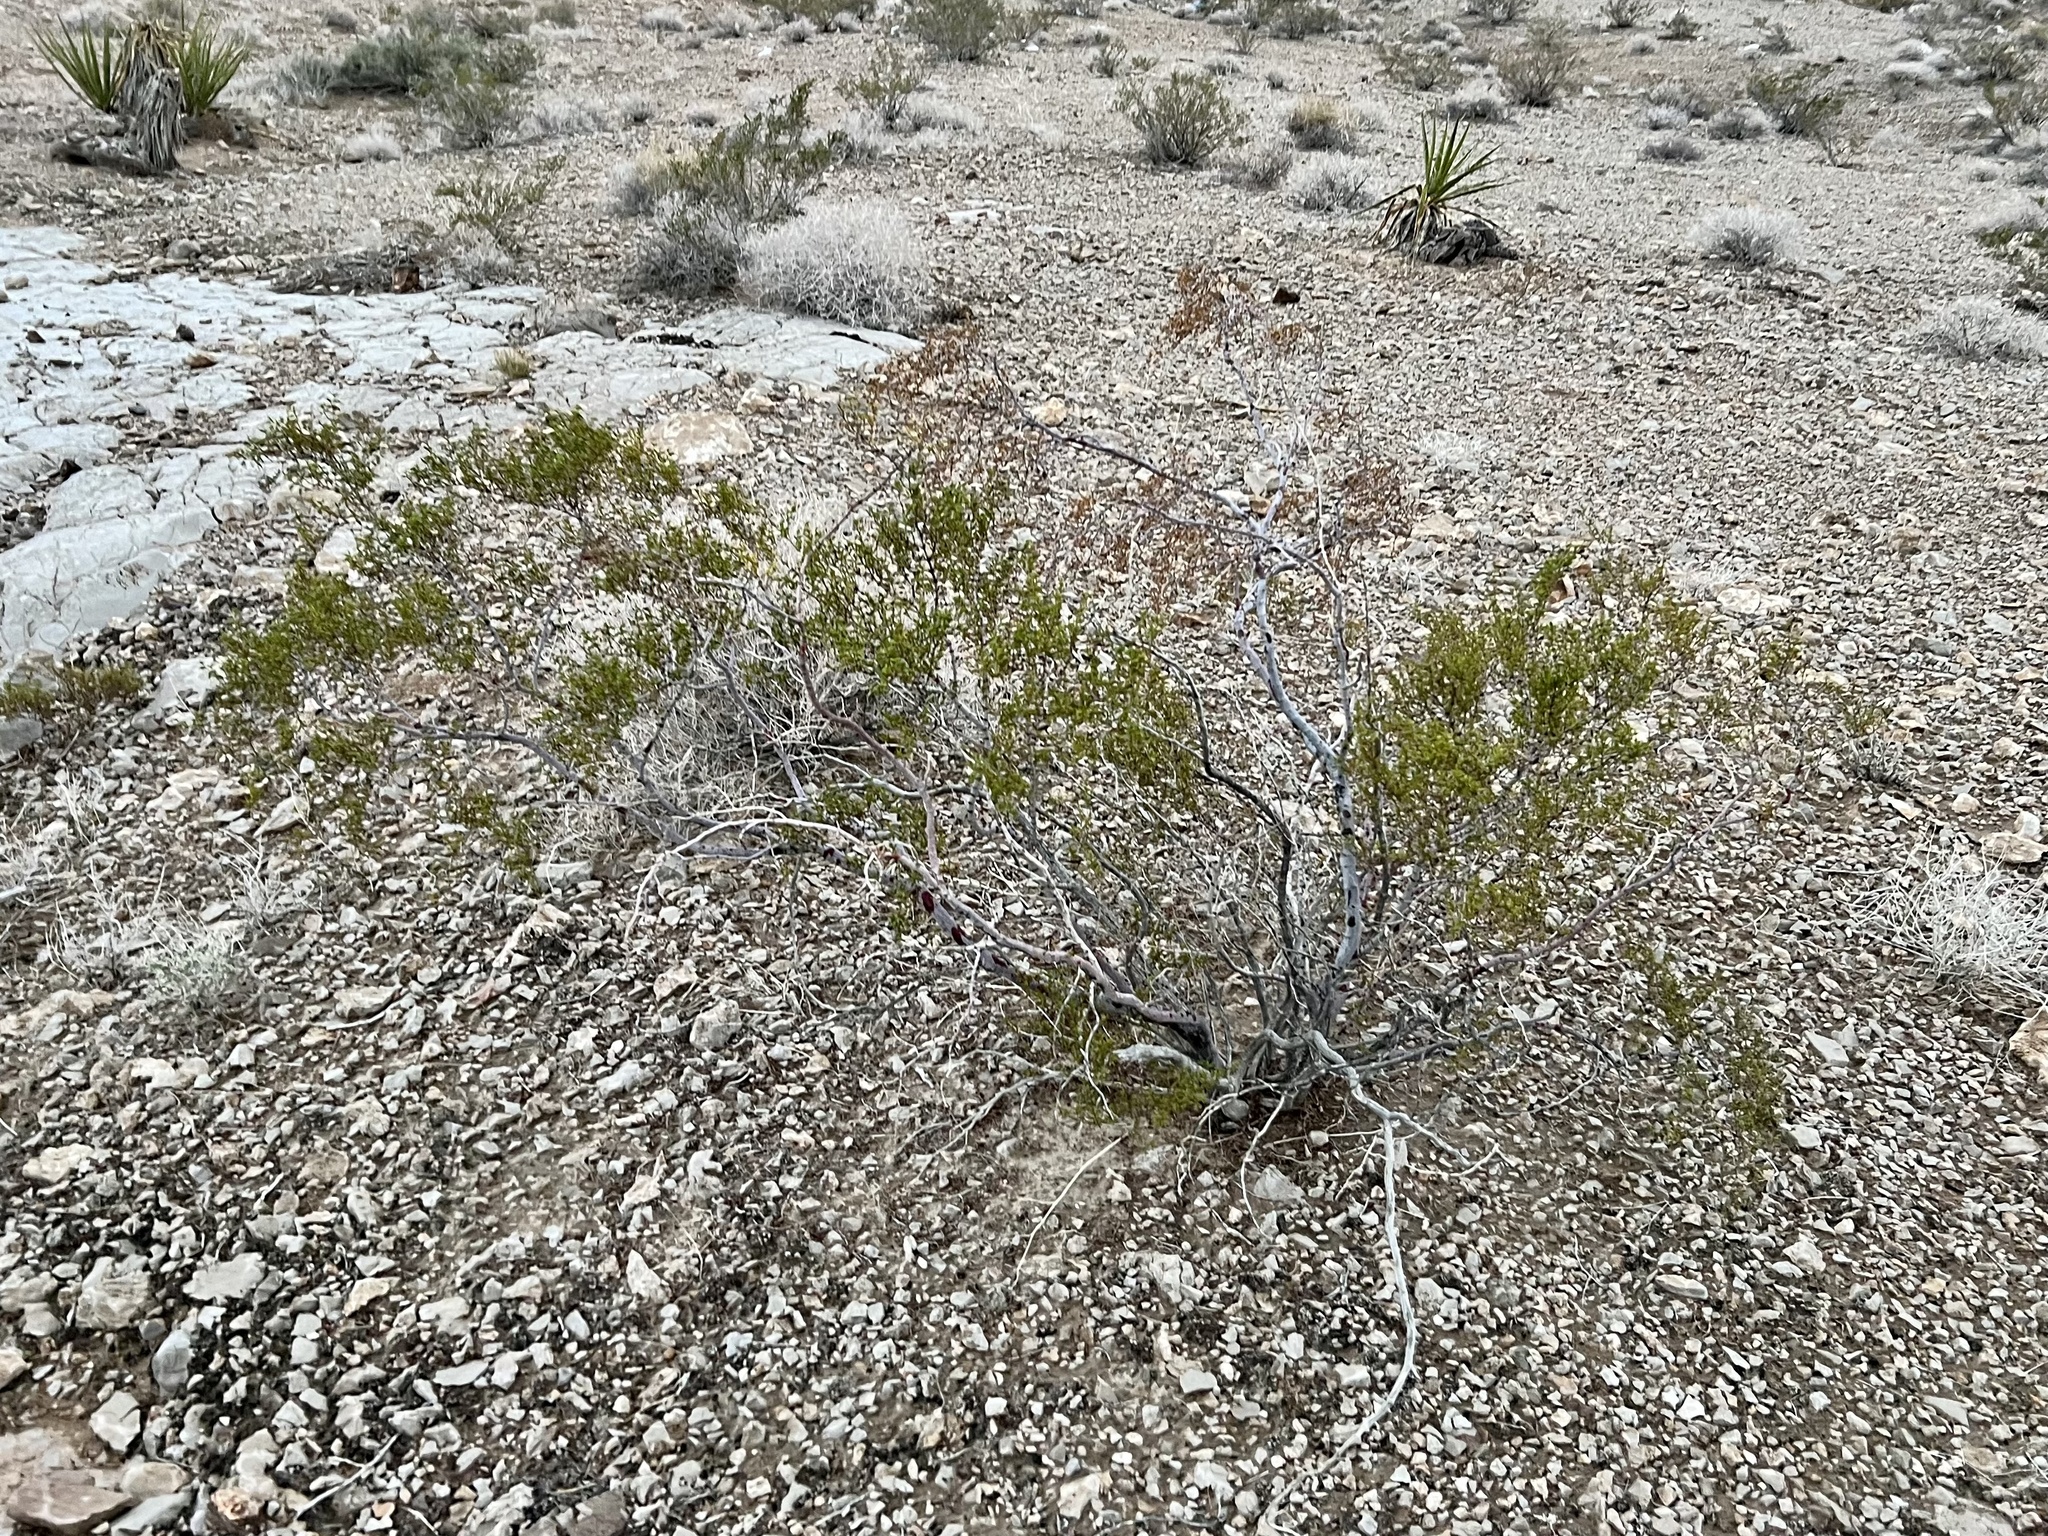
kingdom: Plantae
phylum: Tracheophyta
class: Magnoliopsida
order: Zygophyllales
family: Zygophyllaceae
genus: Larrea
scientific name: Larrea tridentata
